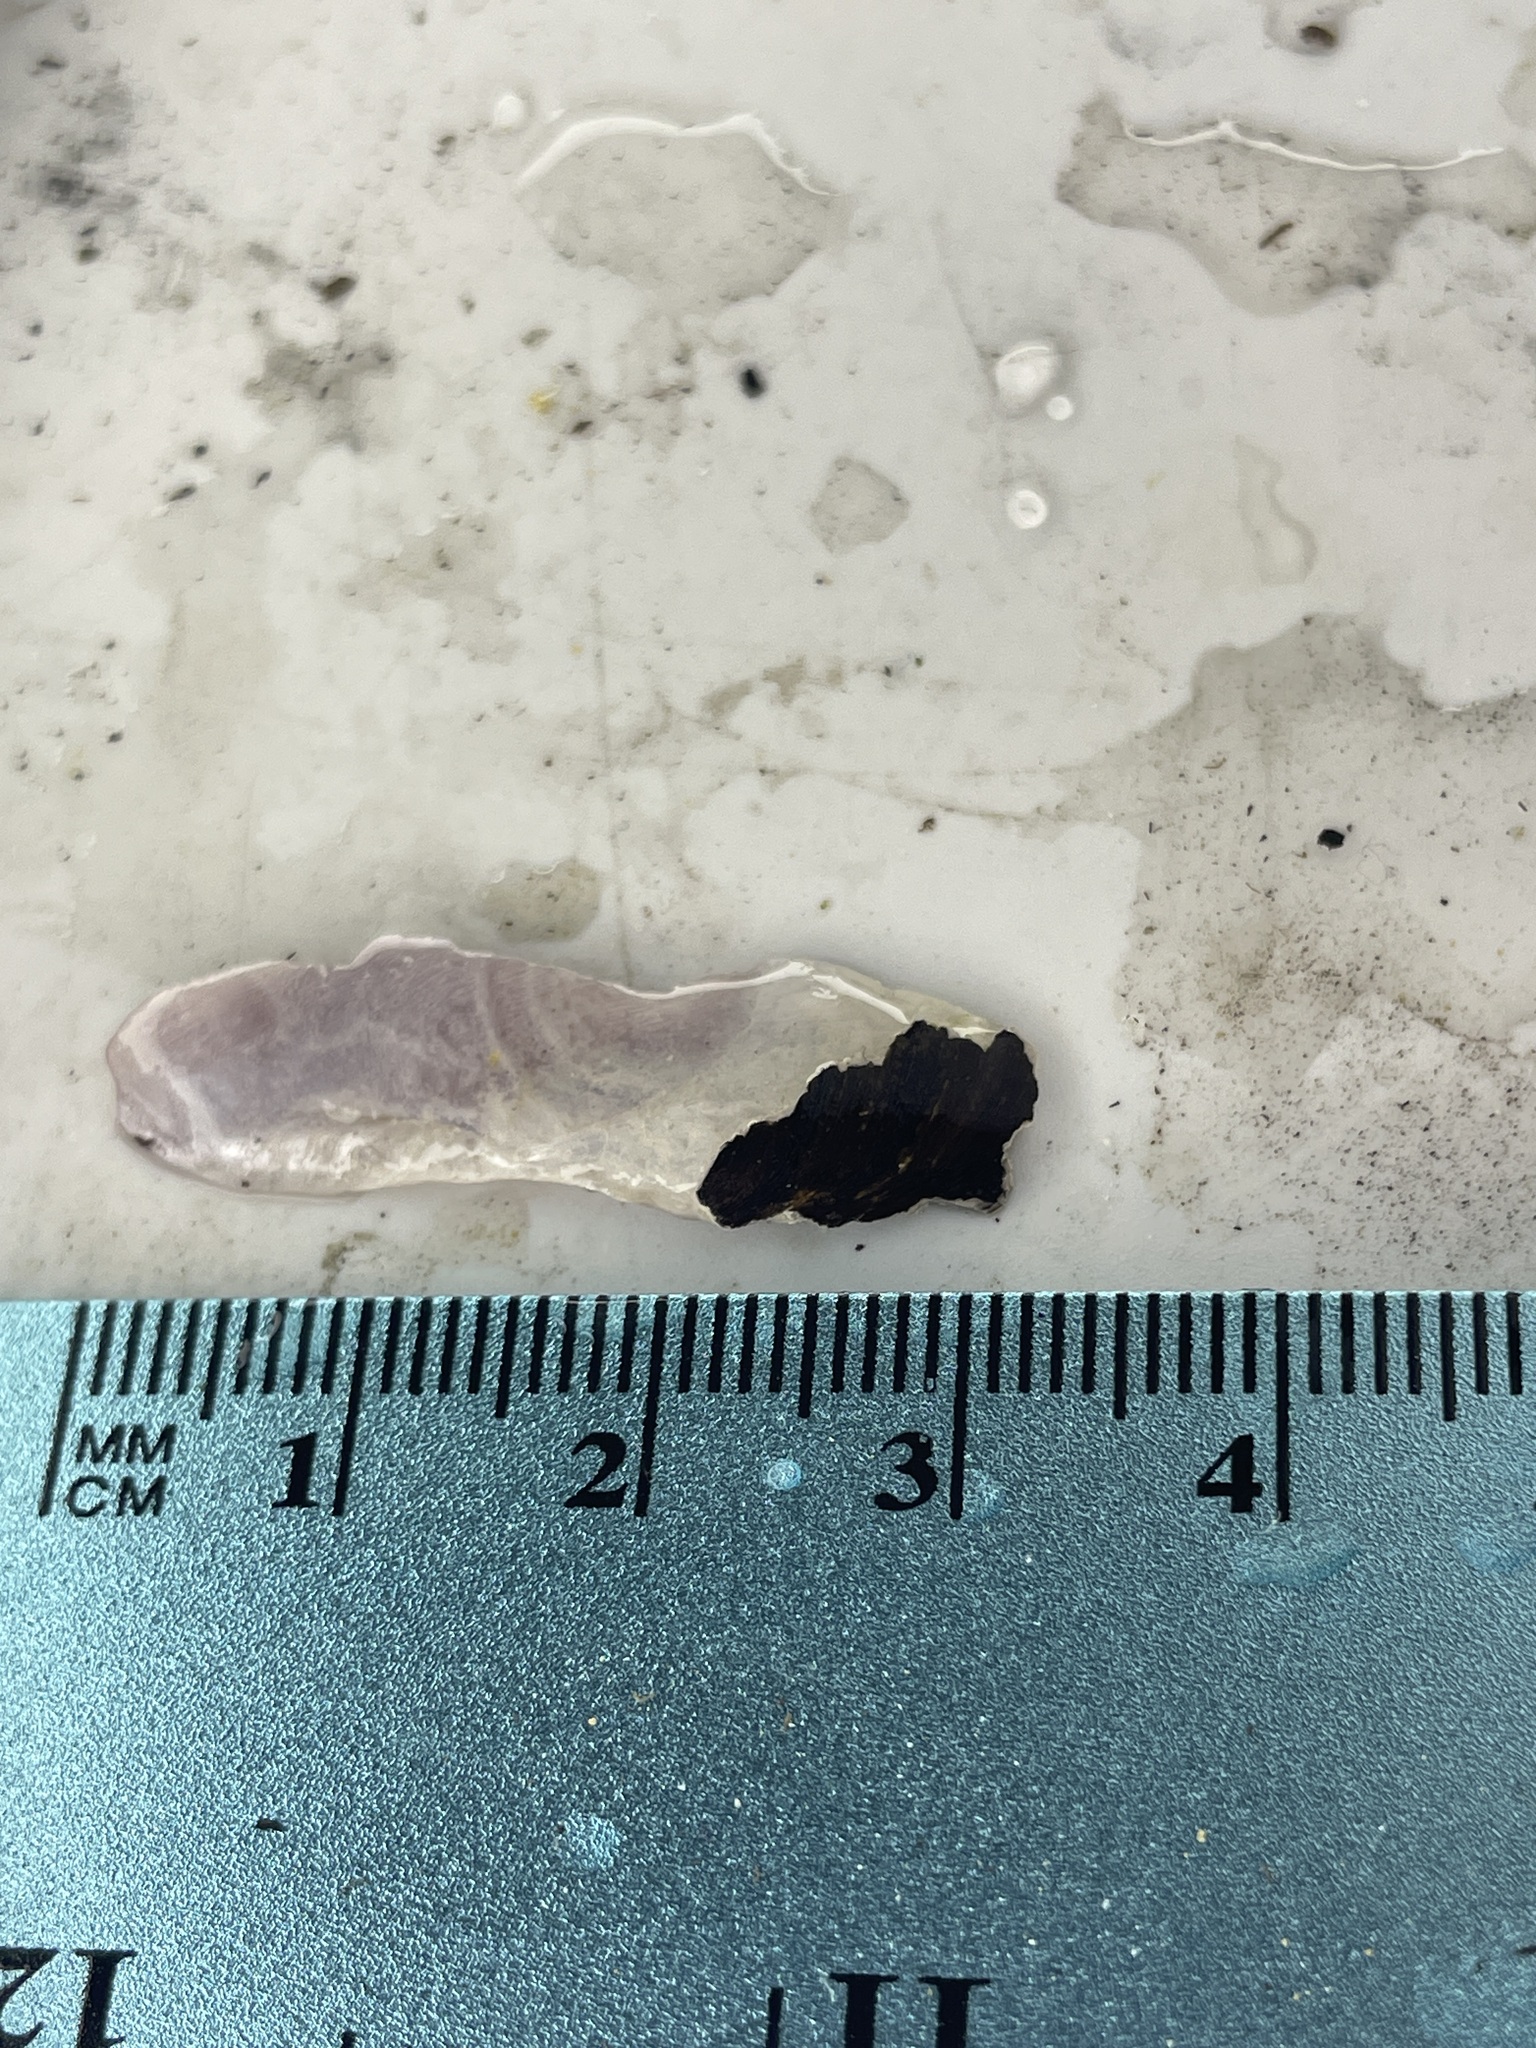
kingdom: Animalia
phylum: Mollusca
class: Bivalvia
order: Unionida
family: Unionidae
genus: Eurynia
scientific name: Eurynia dilatata
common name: Spike
